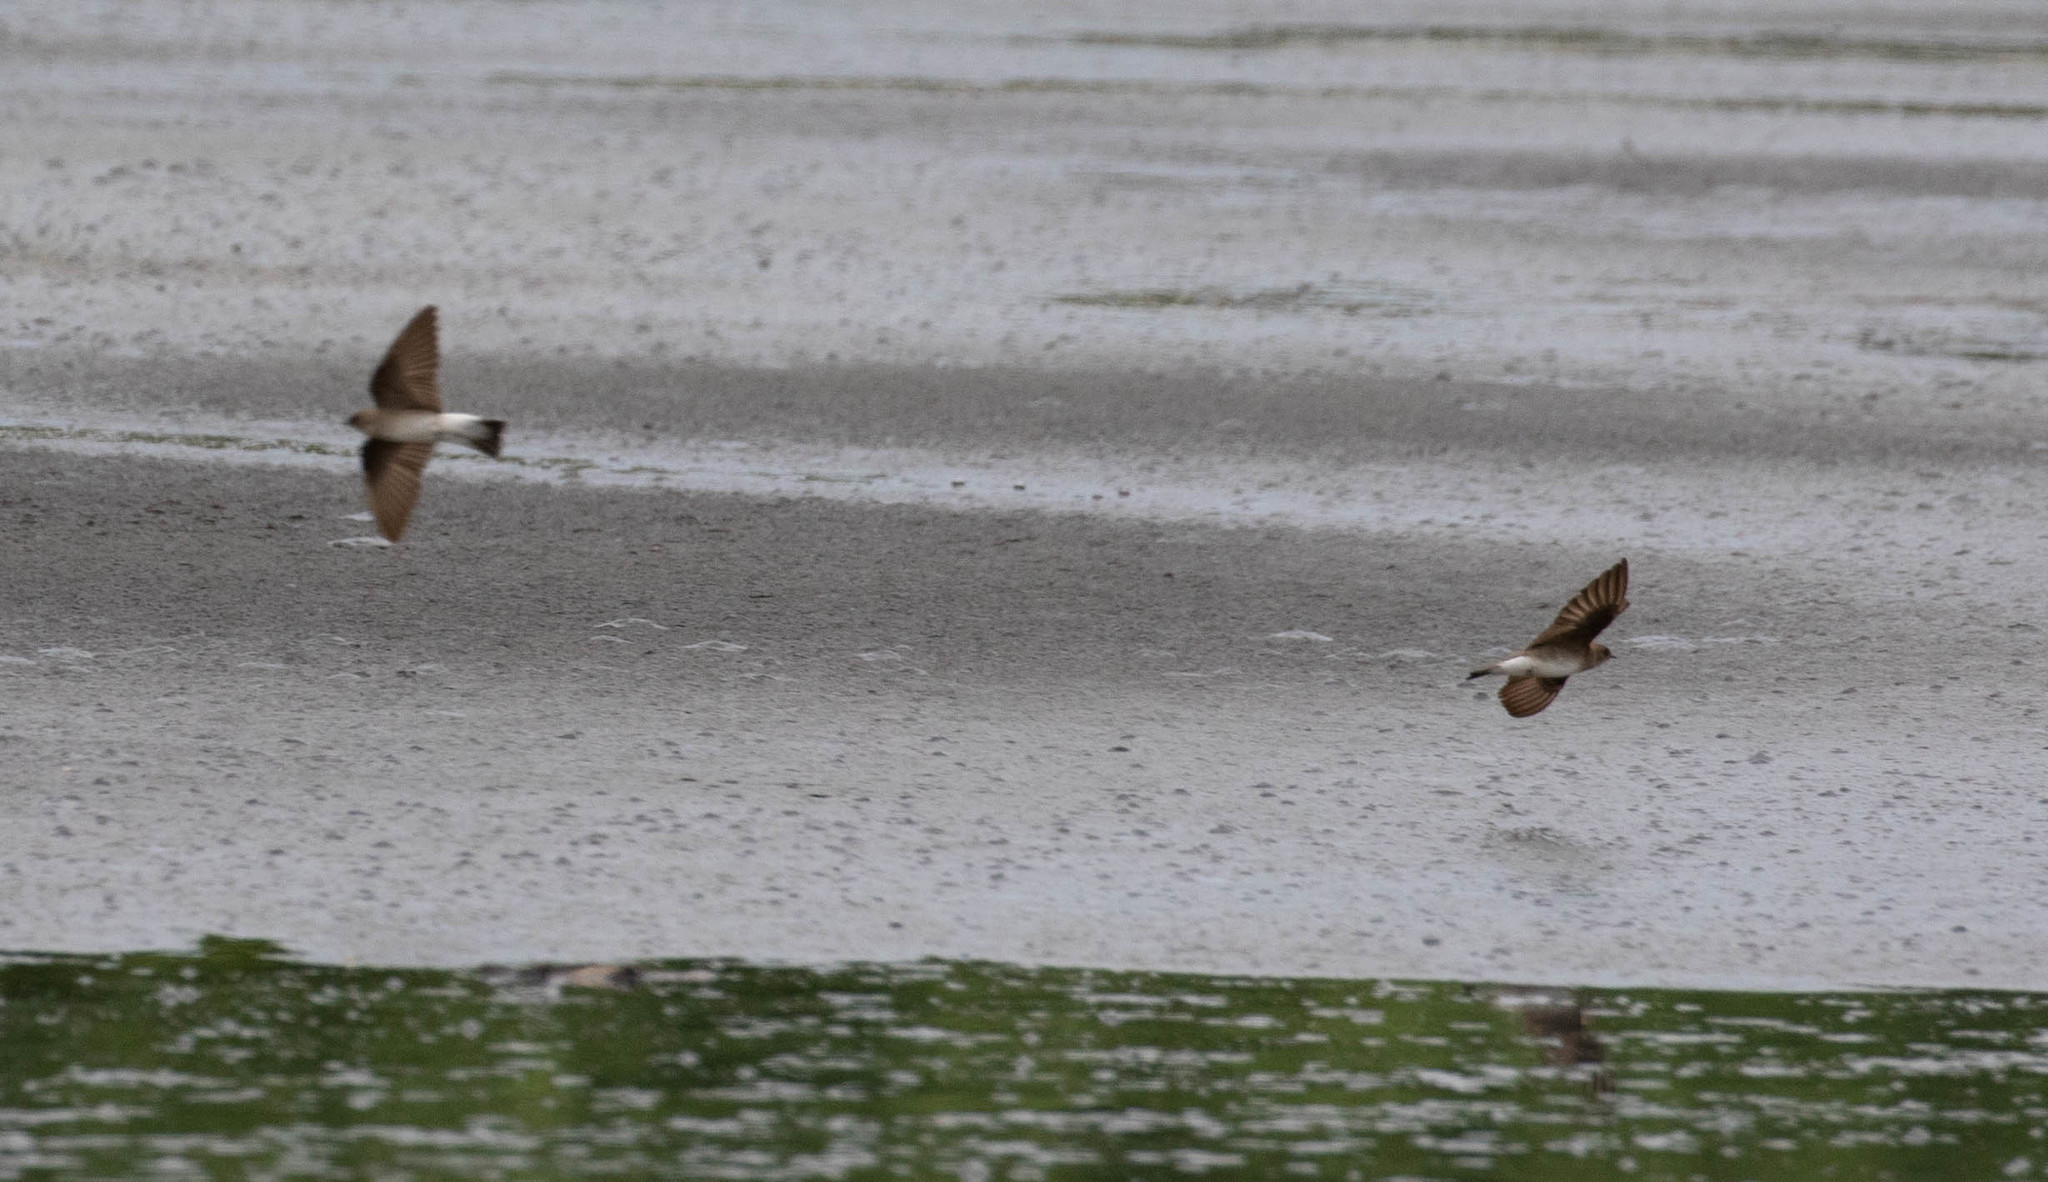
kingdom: Animalia
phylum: Chordata
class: Aves
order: Passeriformes
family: Hirundinidae
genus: Stelgidopteryx
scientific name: Stelgidopteryx serripennis
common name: Northern rough-winged swallow
